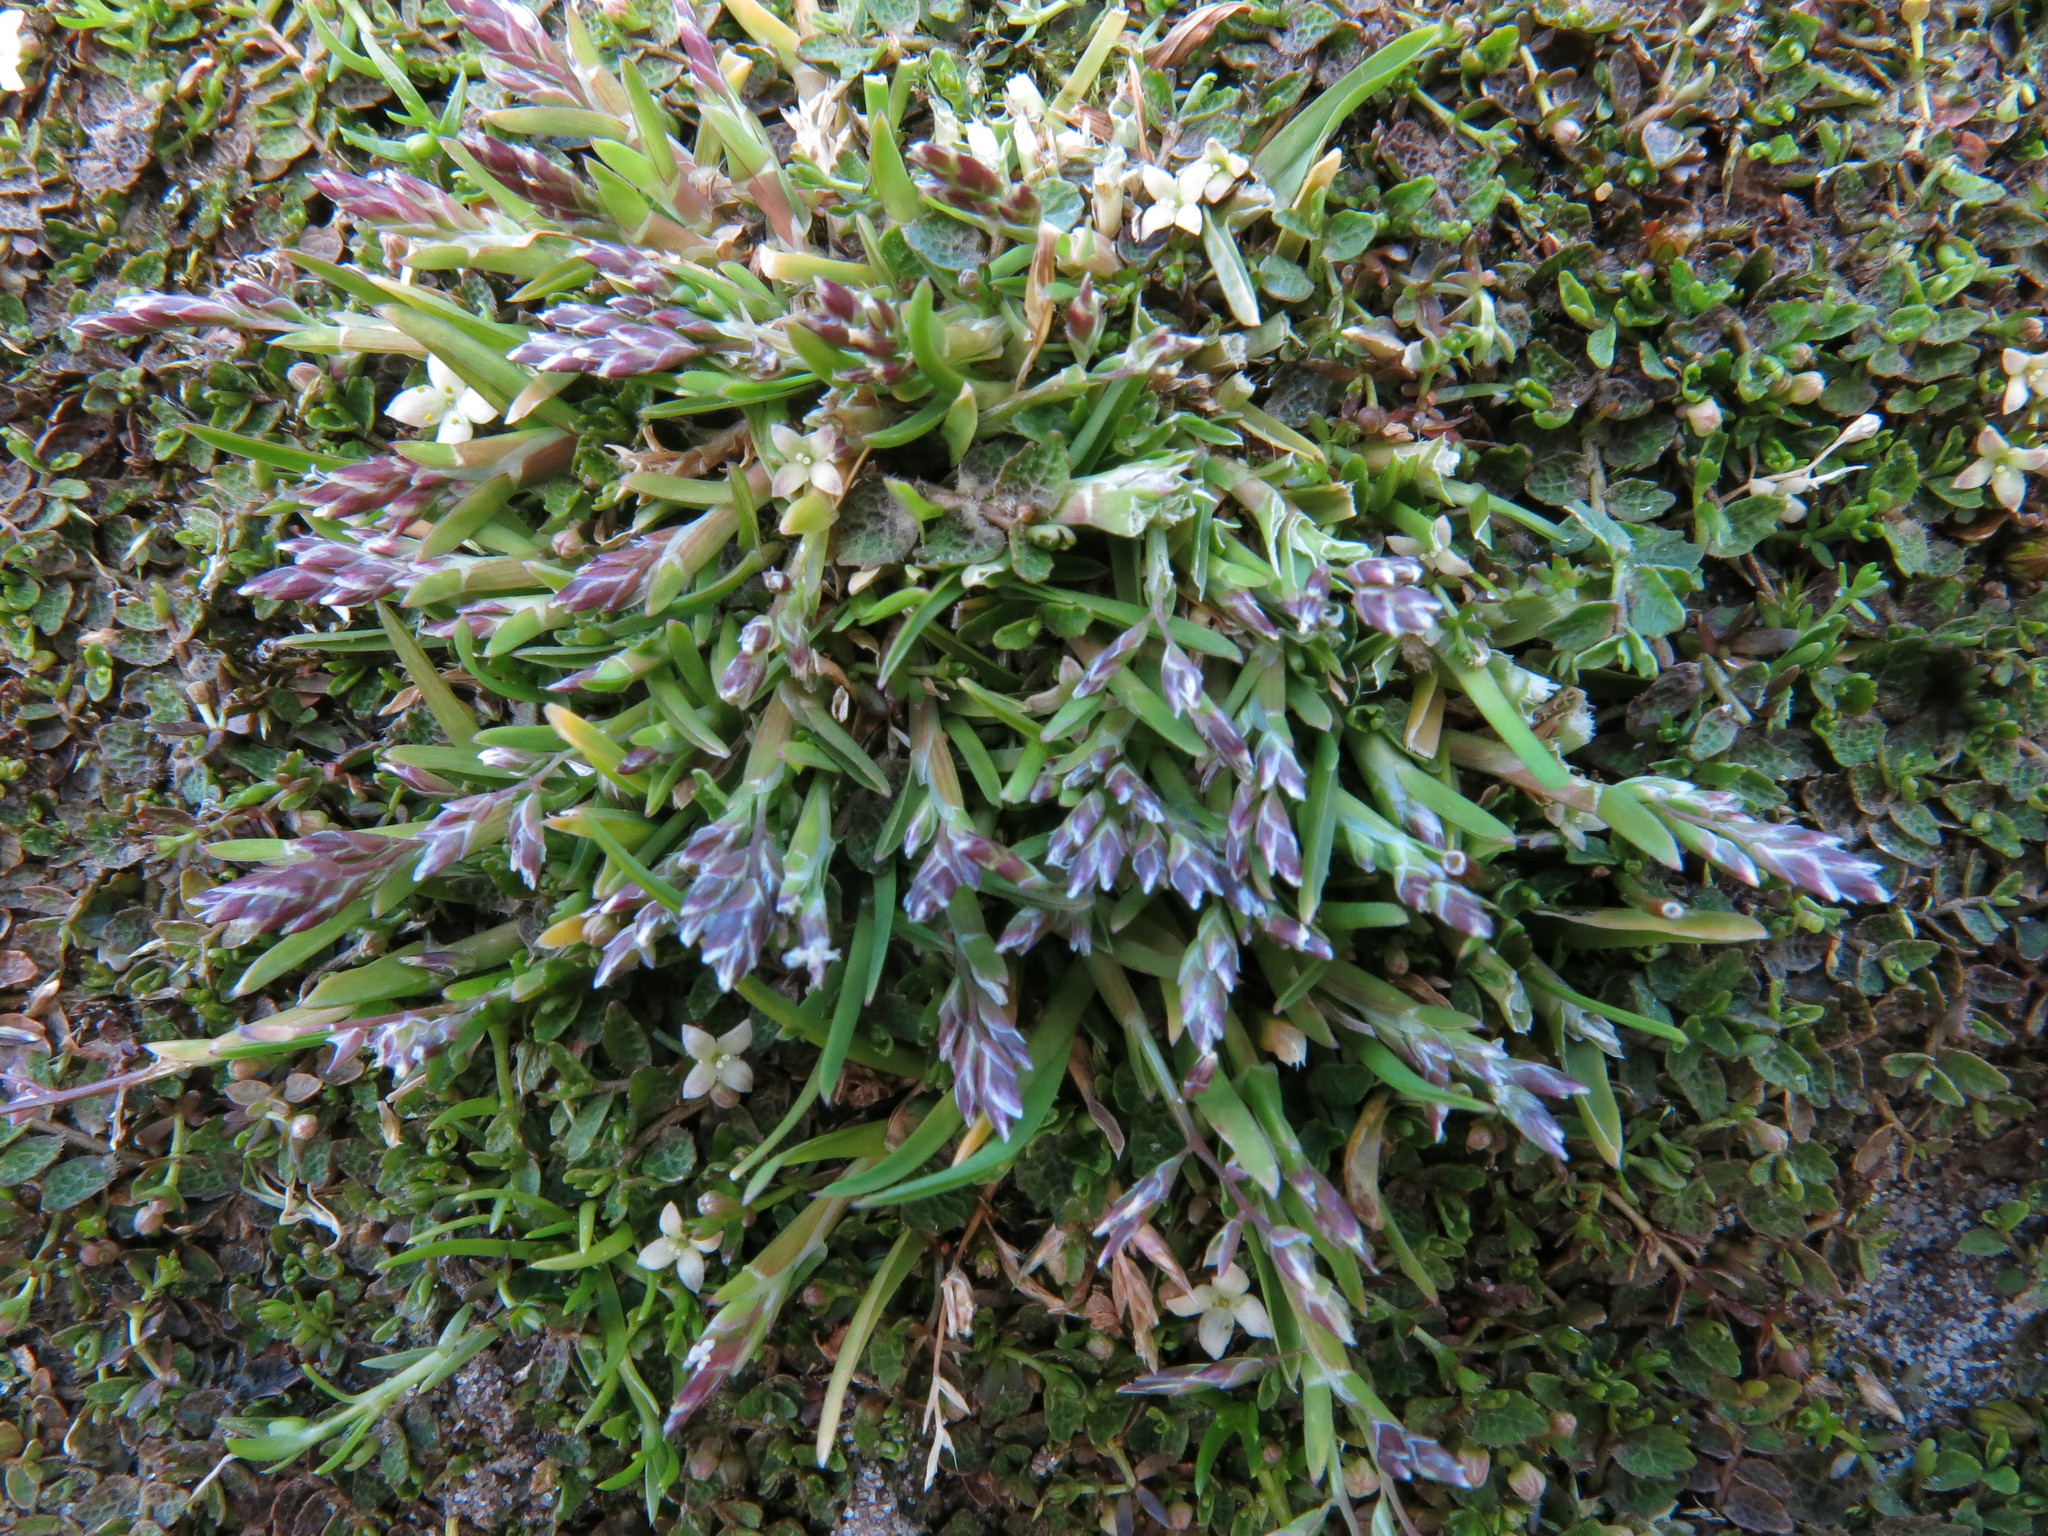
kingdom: Plantae
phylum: Tracheophyta
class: Liliopsida
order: Poales
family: Poaceae
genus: Poa
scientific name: Poa annua
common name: Annual bluegrass
